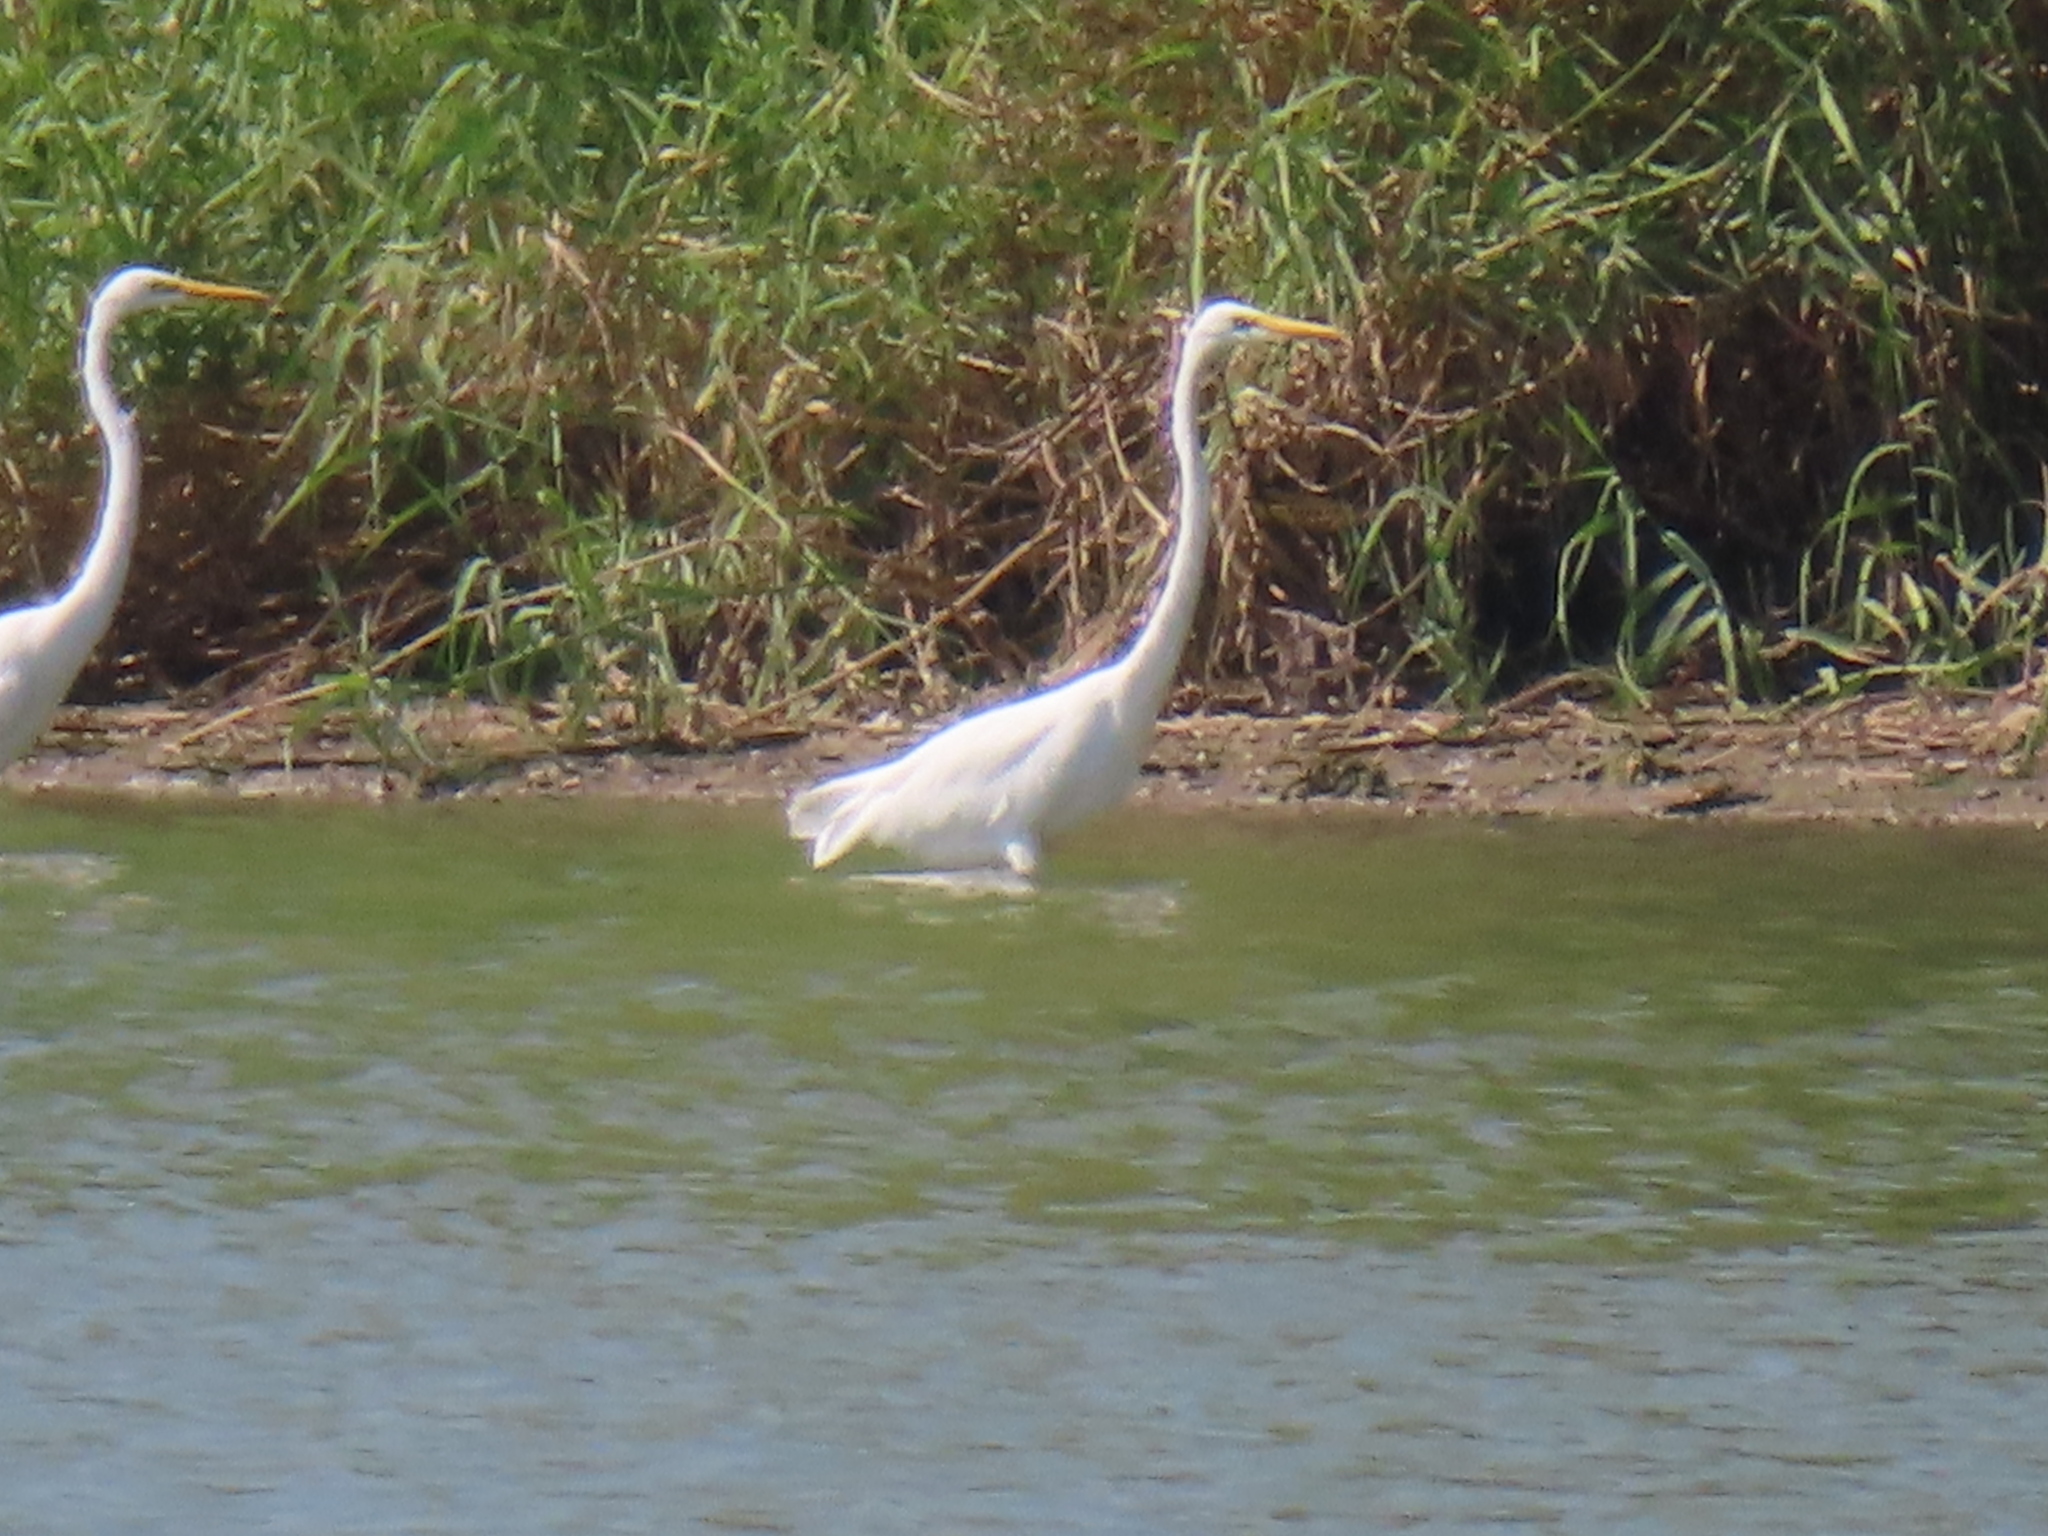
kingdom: Animalia
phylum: Chordata
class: Aves
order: Pelecaniformes
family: Ardeidae
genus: Ardea
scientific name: Ardea alba
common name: Great egret
